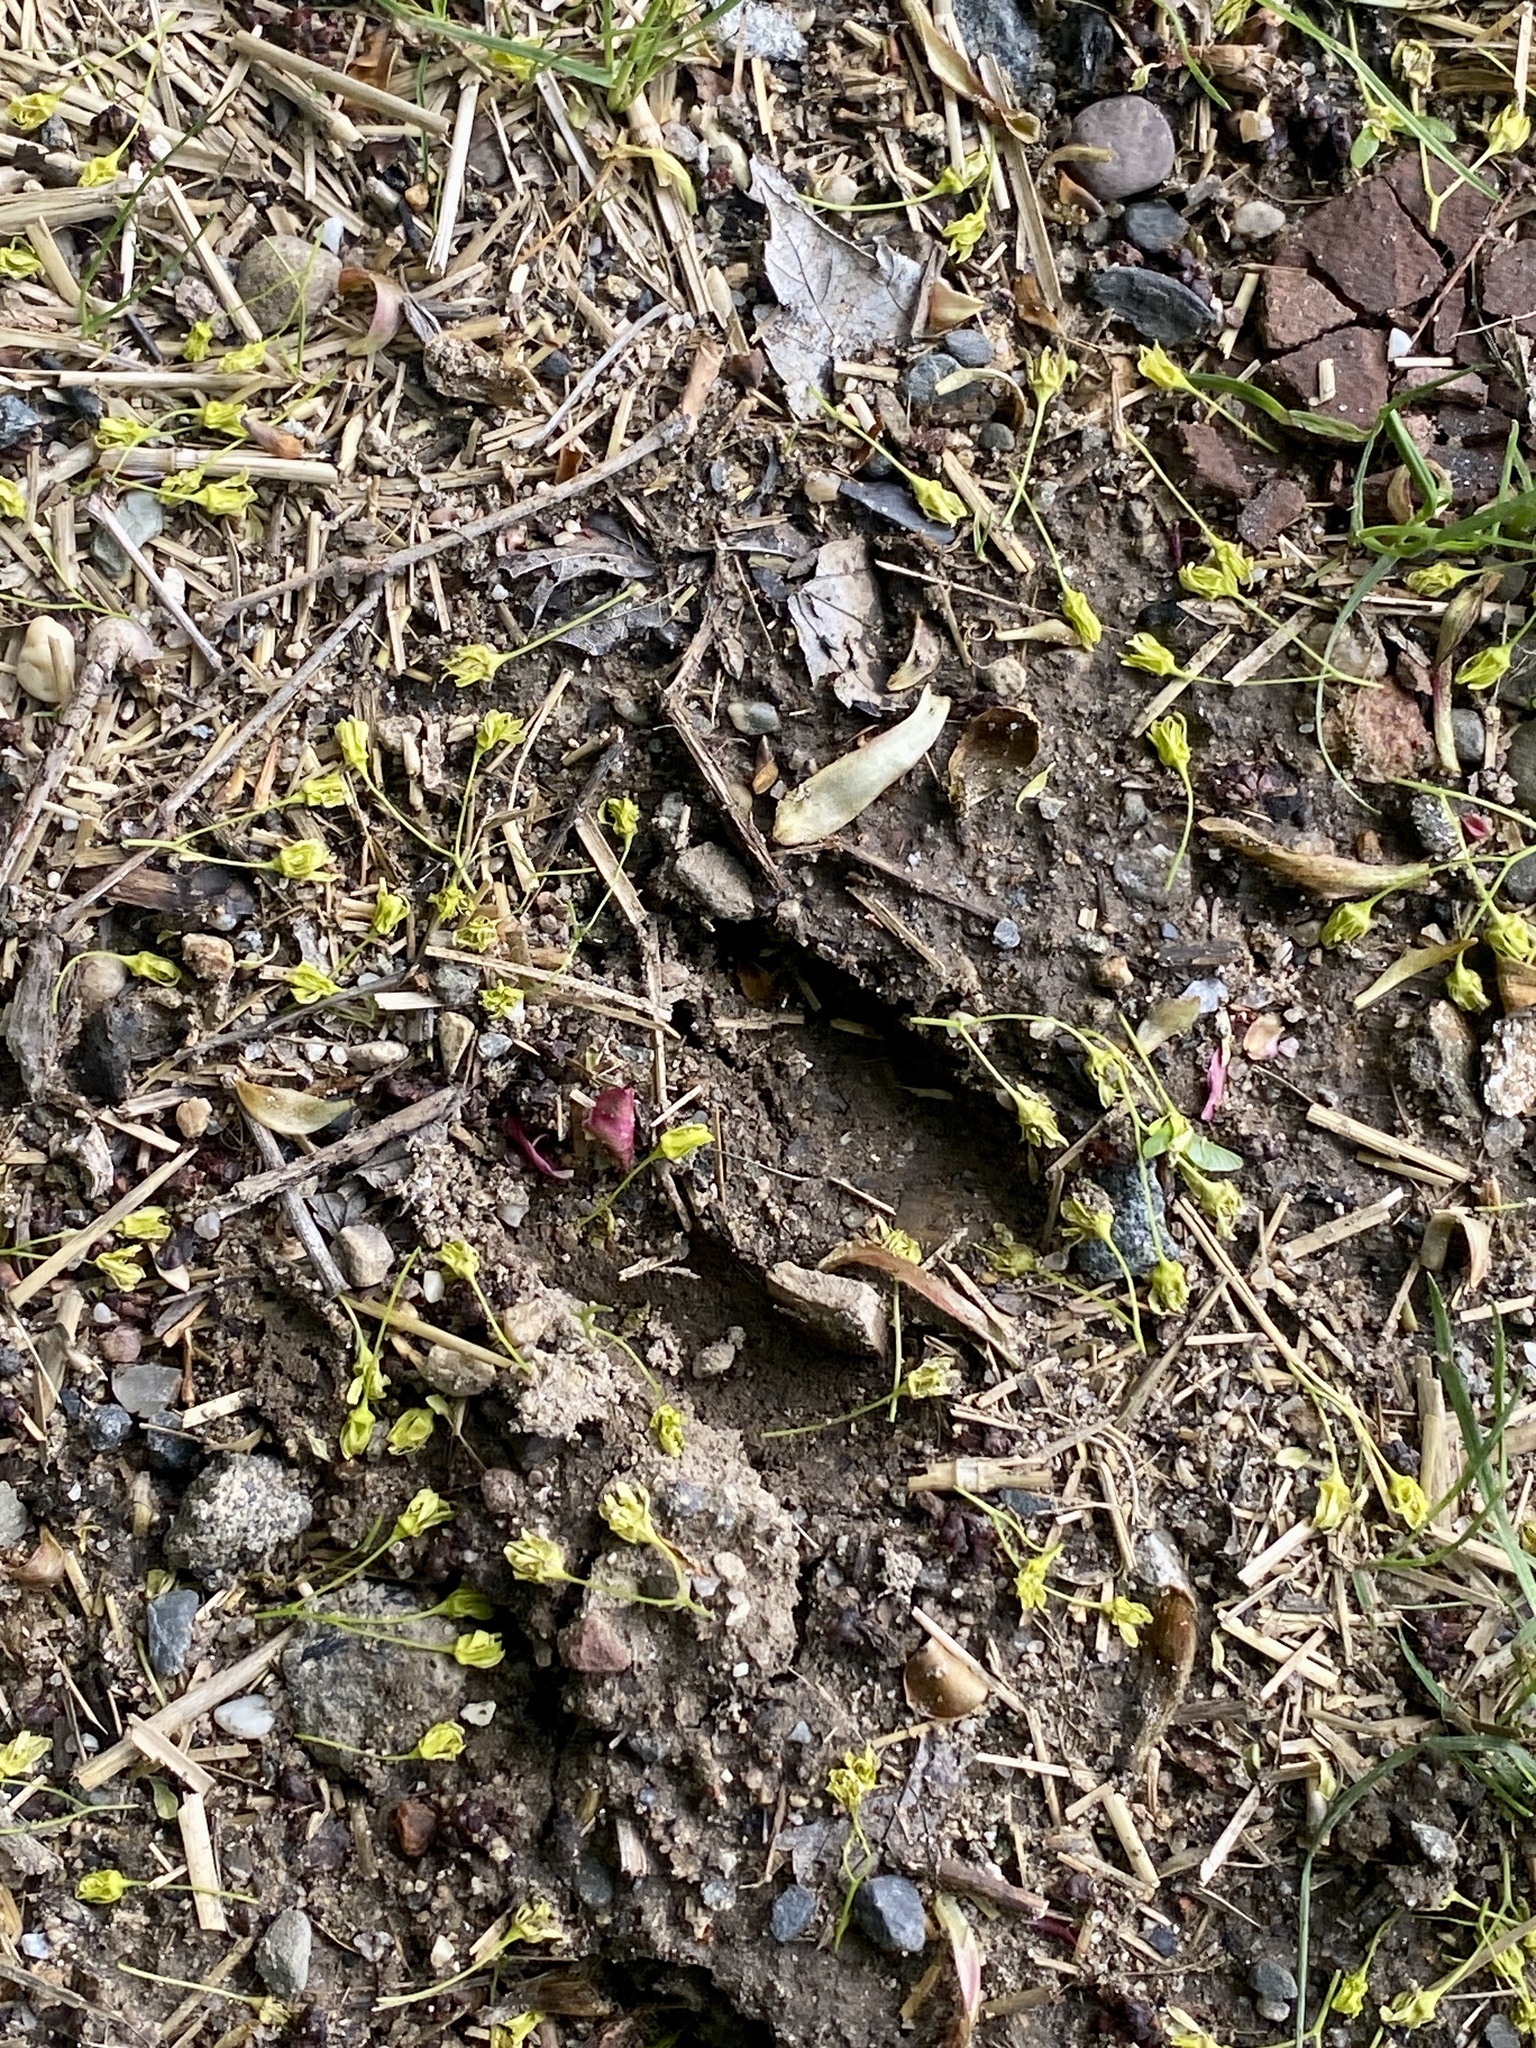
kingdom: Animalia
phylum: Chordata
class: Mammalia
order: Artiodactyla
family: Cervidae
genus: Odocoileus
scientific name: Odocoileus virginianus
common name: White-tailed deer
